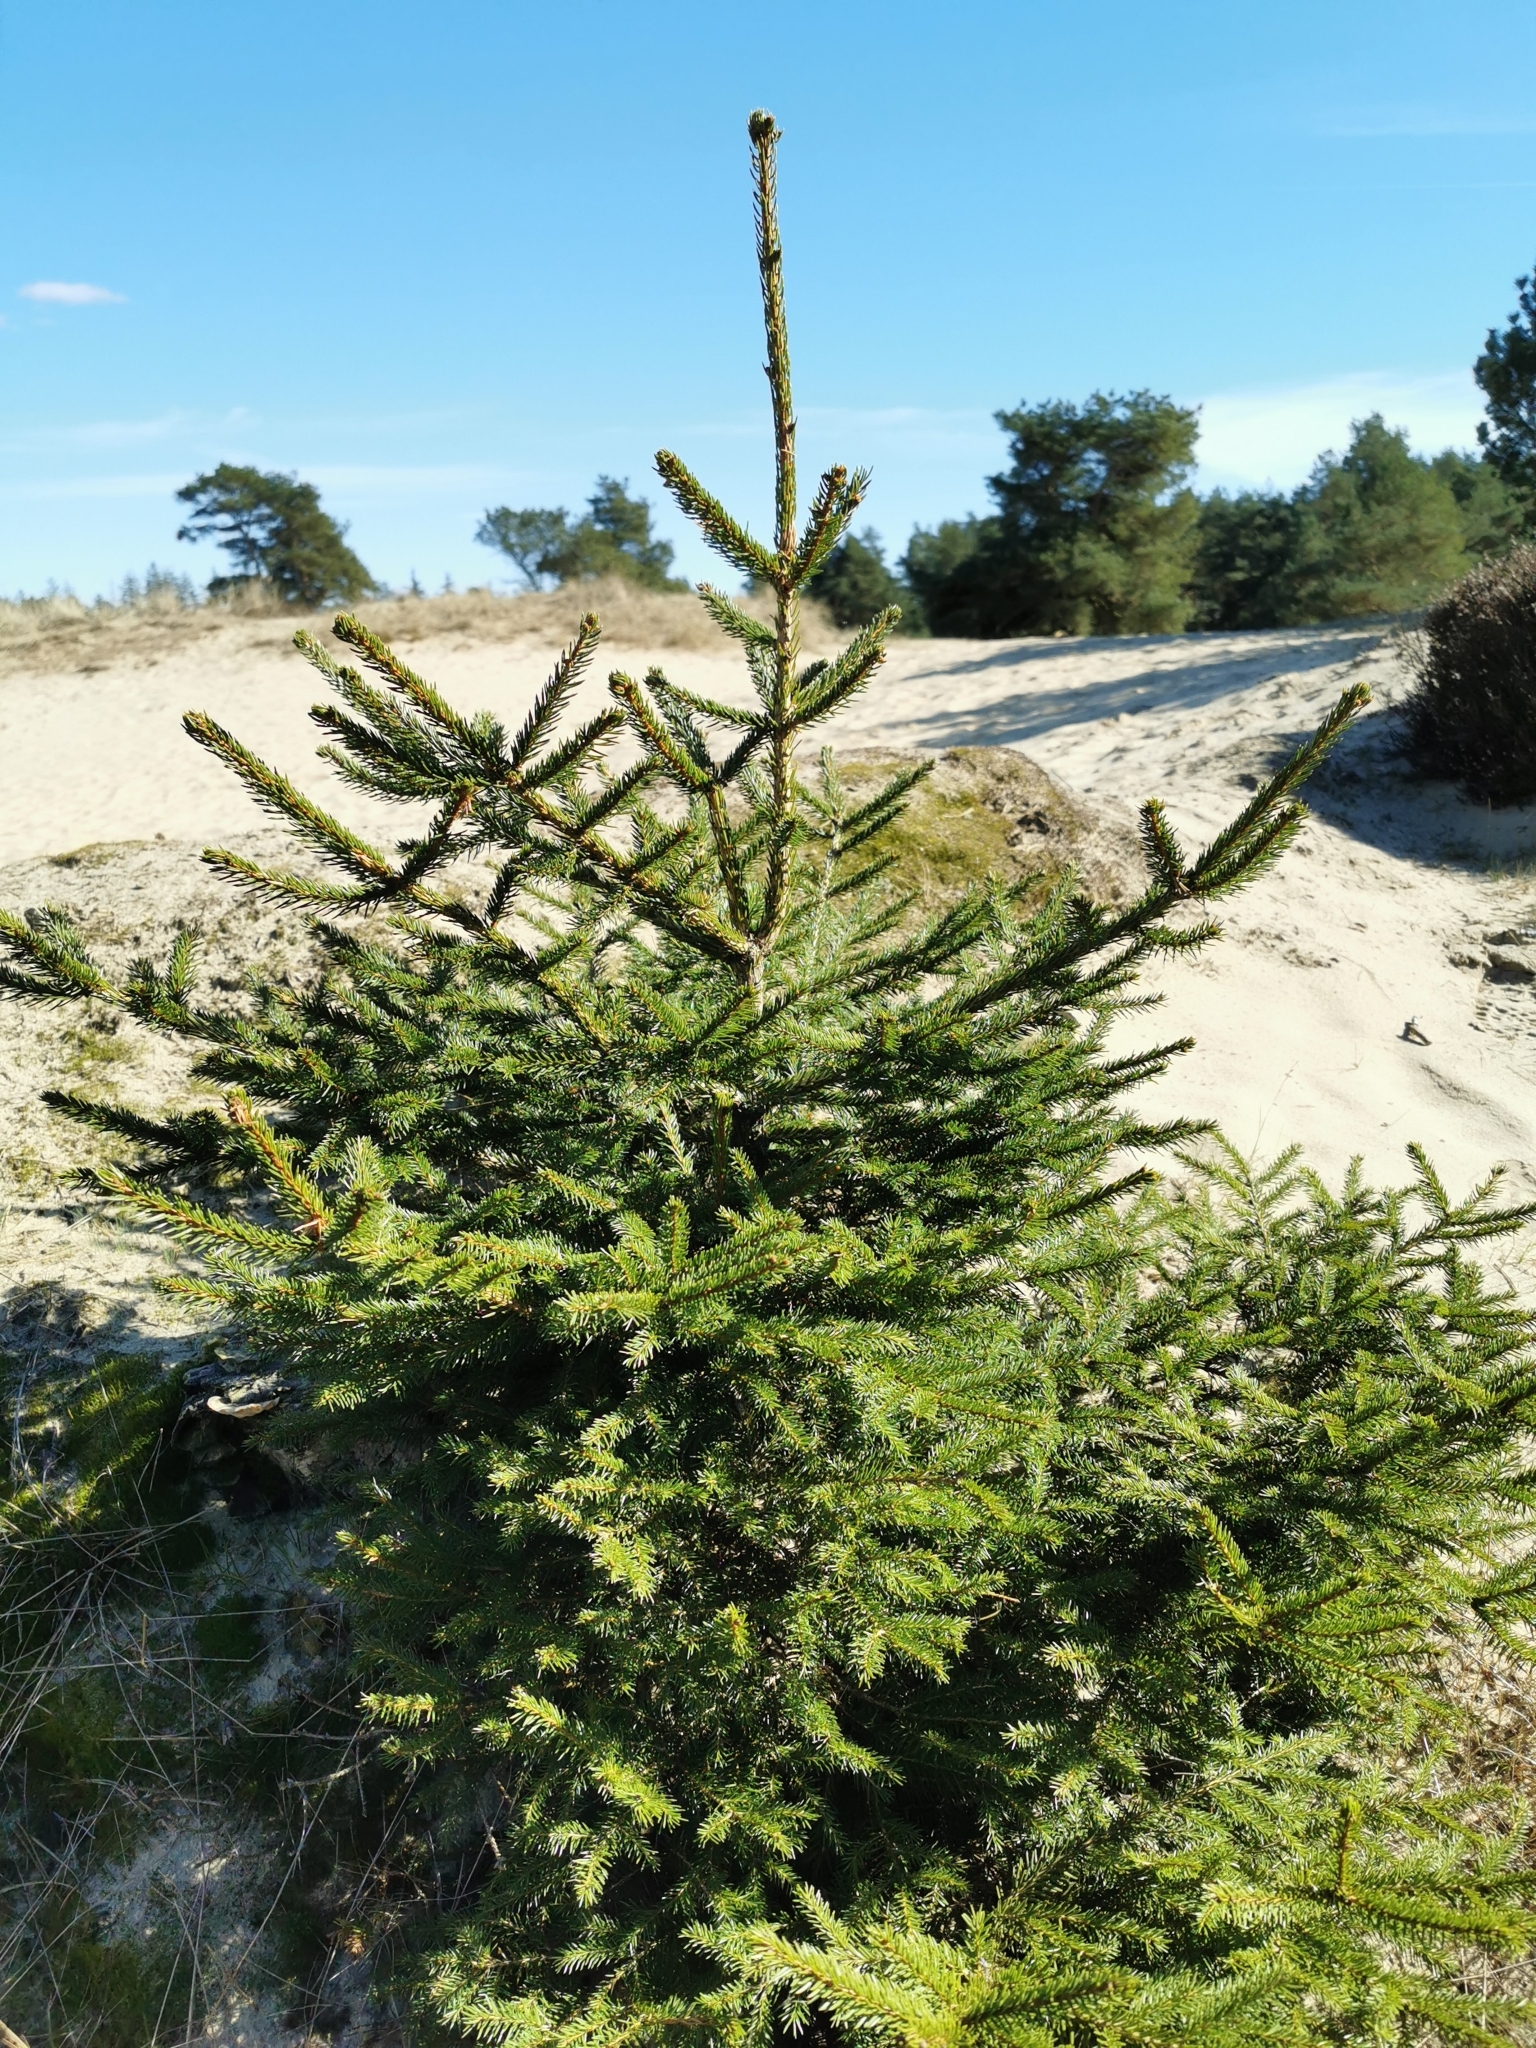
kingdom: Plantae
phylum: Tracheophyta
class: Pinopsida
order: Pinales
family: Pinaceae
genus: Picea
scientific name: Picea abies
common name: Norway spruce
